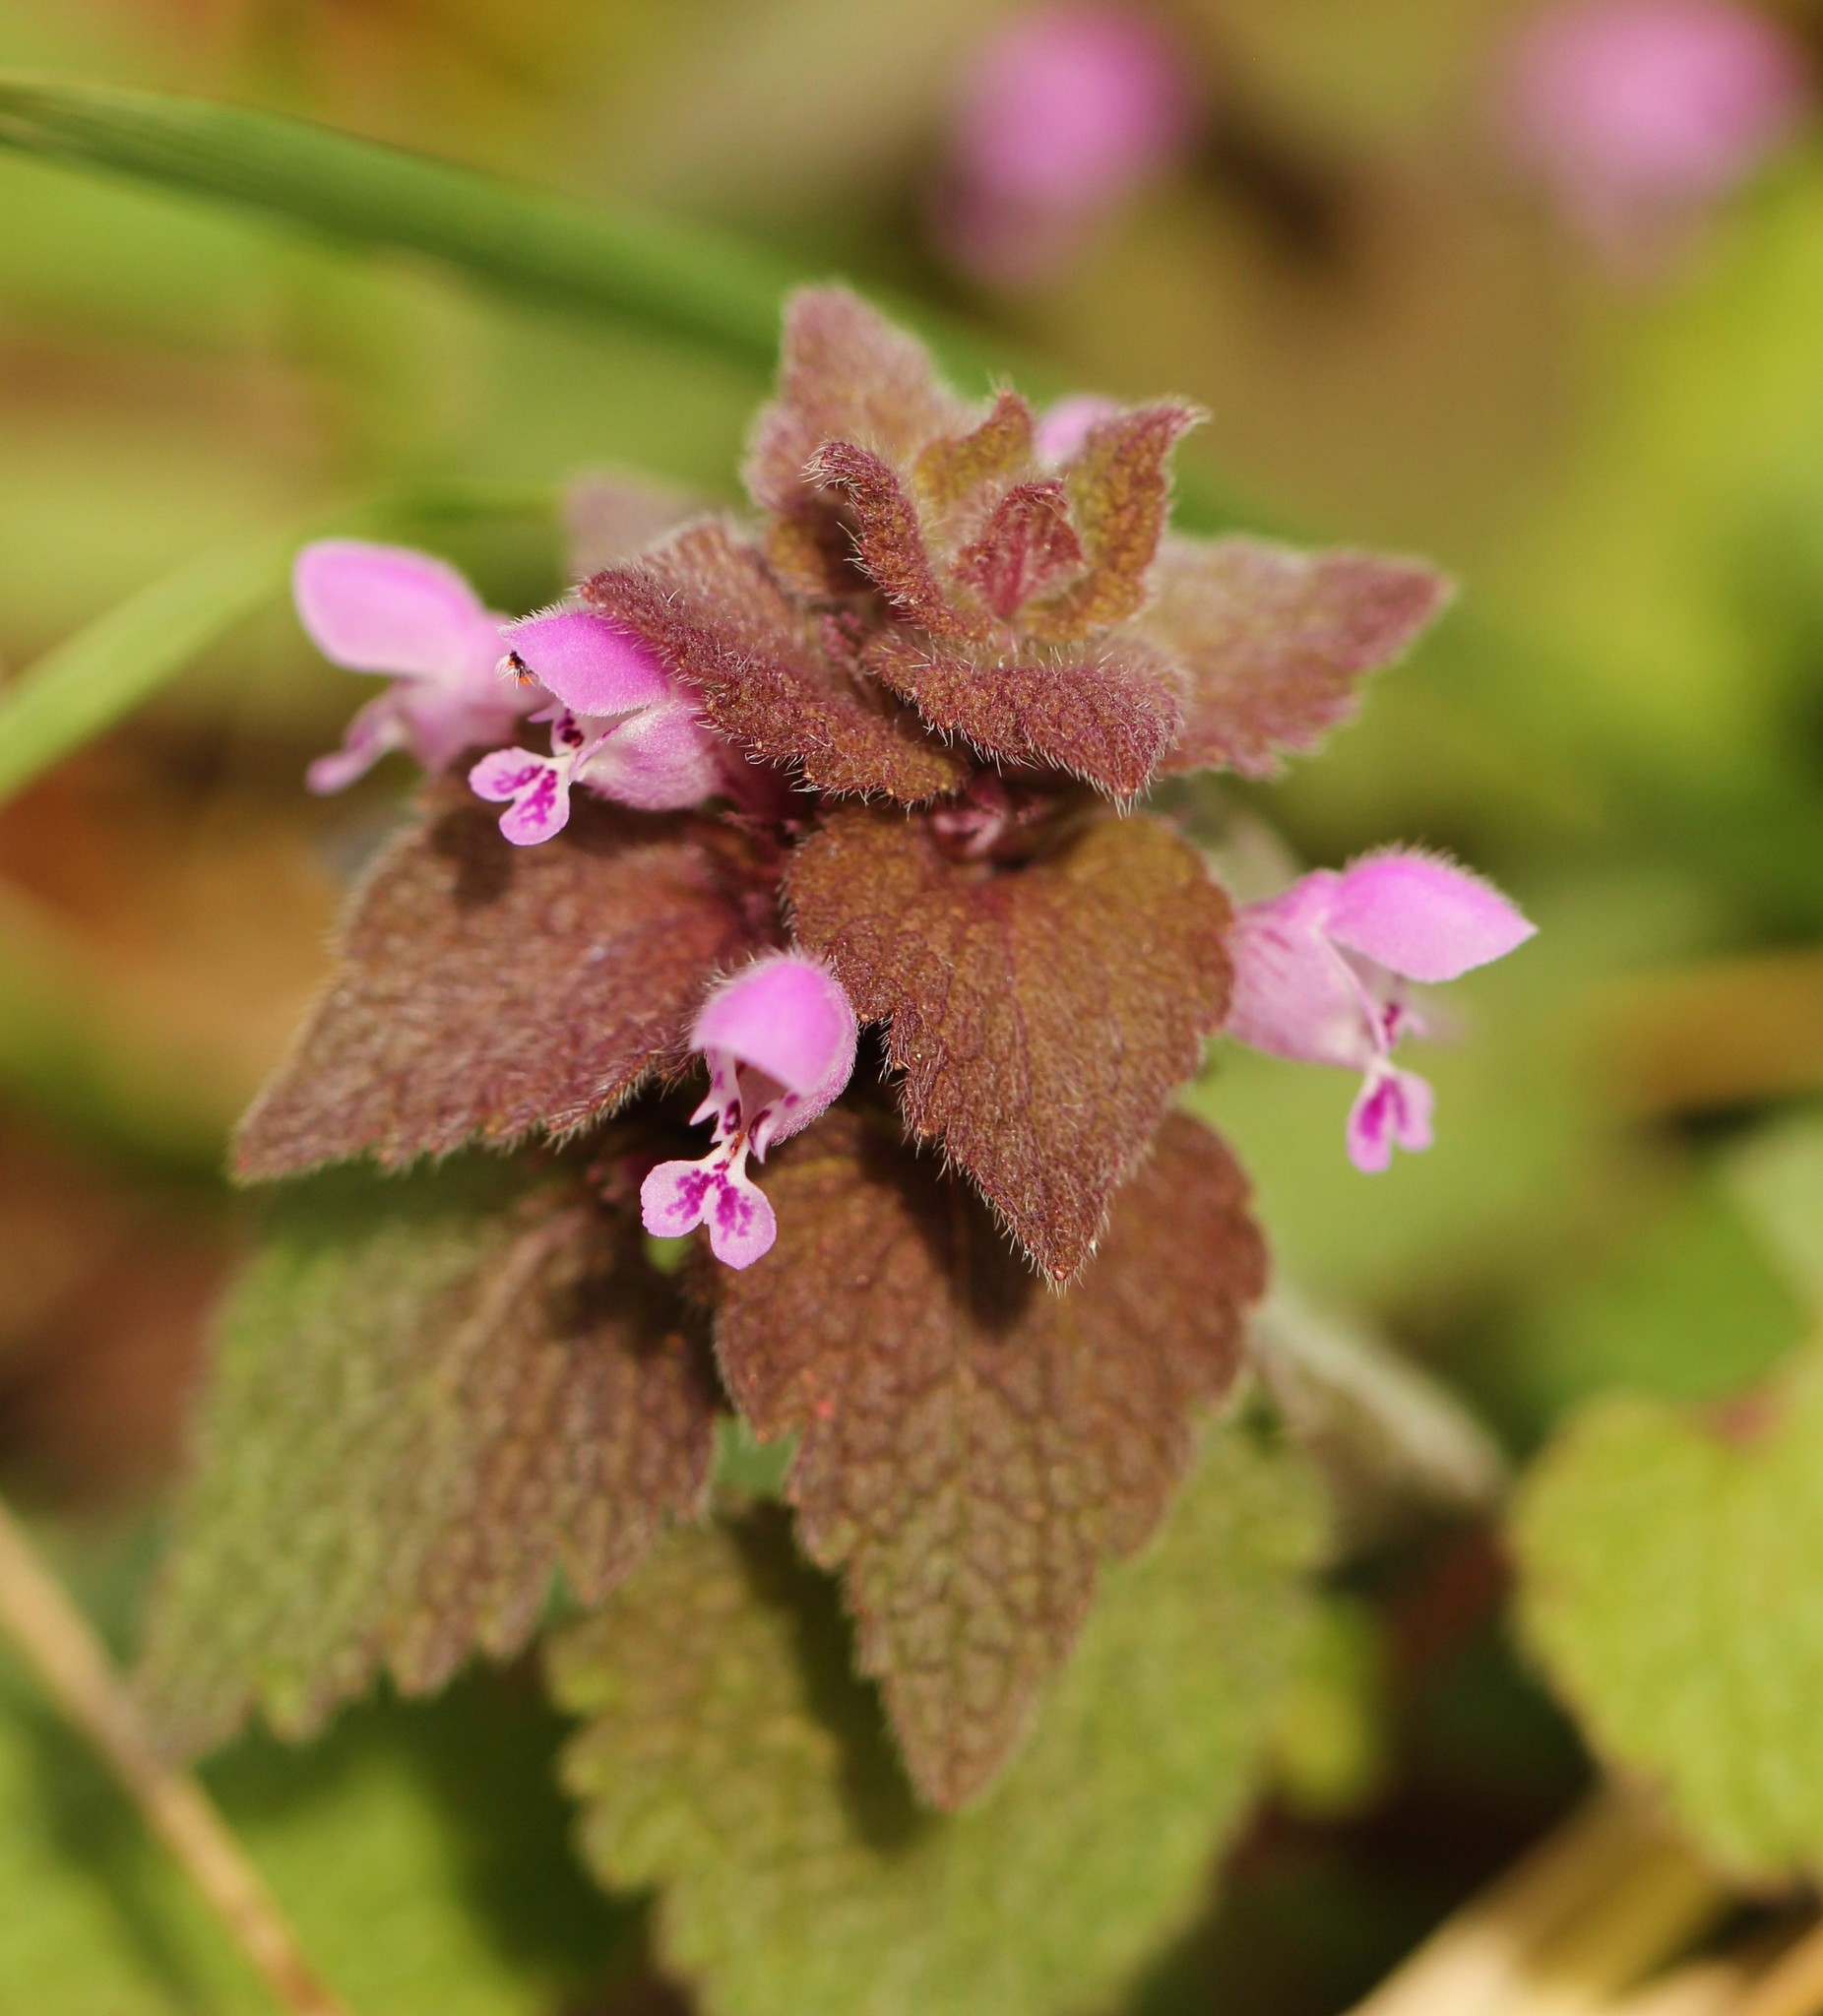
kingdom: Plantae
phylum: Tracheophyta
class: Magnoliopsida
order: Lamiales
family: Lamiaceae
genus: Lamium
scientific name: Lamium purpureum
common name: Red dead-nettle
